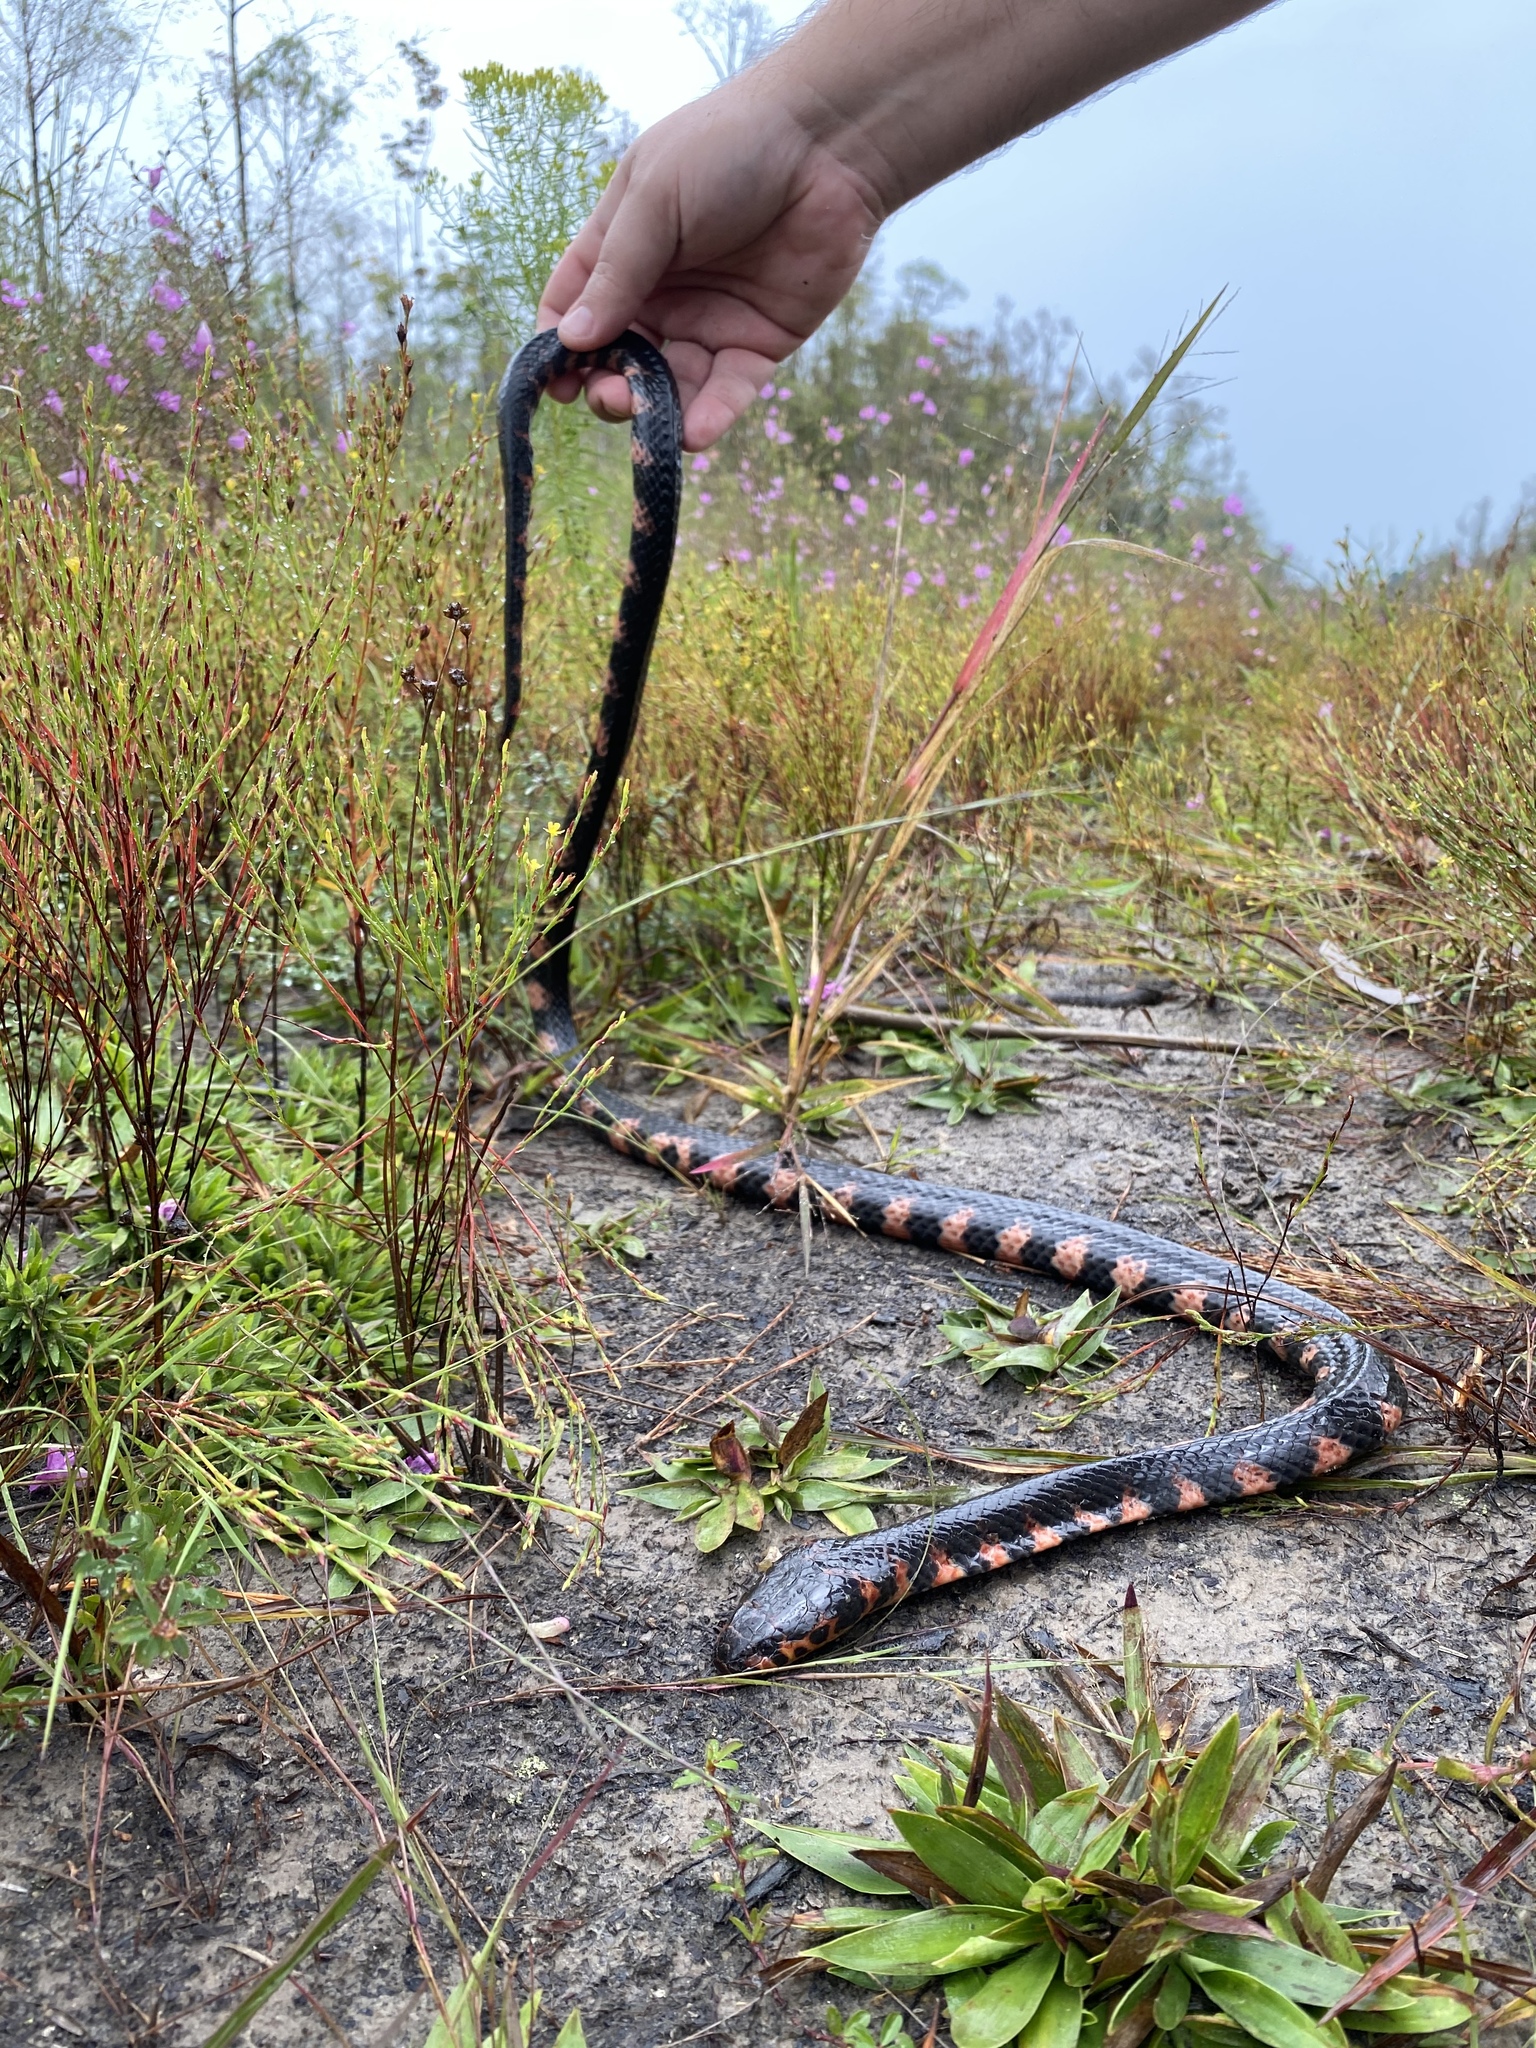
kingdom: Animalia
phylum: Chordata
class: Squamata
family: Colubridae
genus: Farancia
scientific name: Farancia abacura
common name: Mud snake
